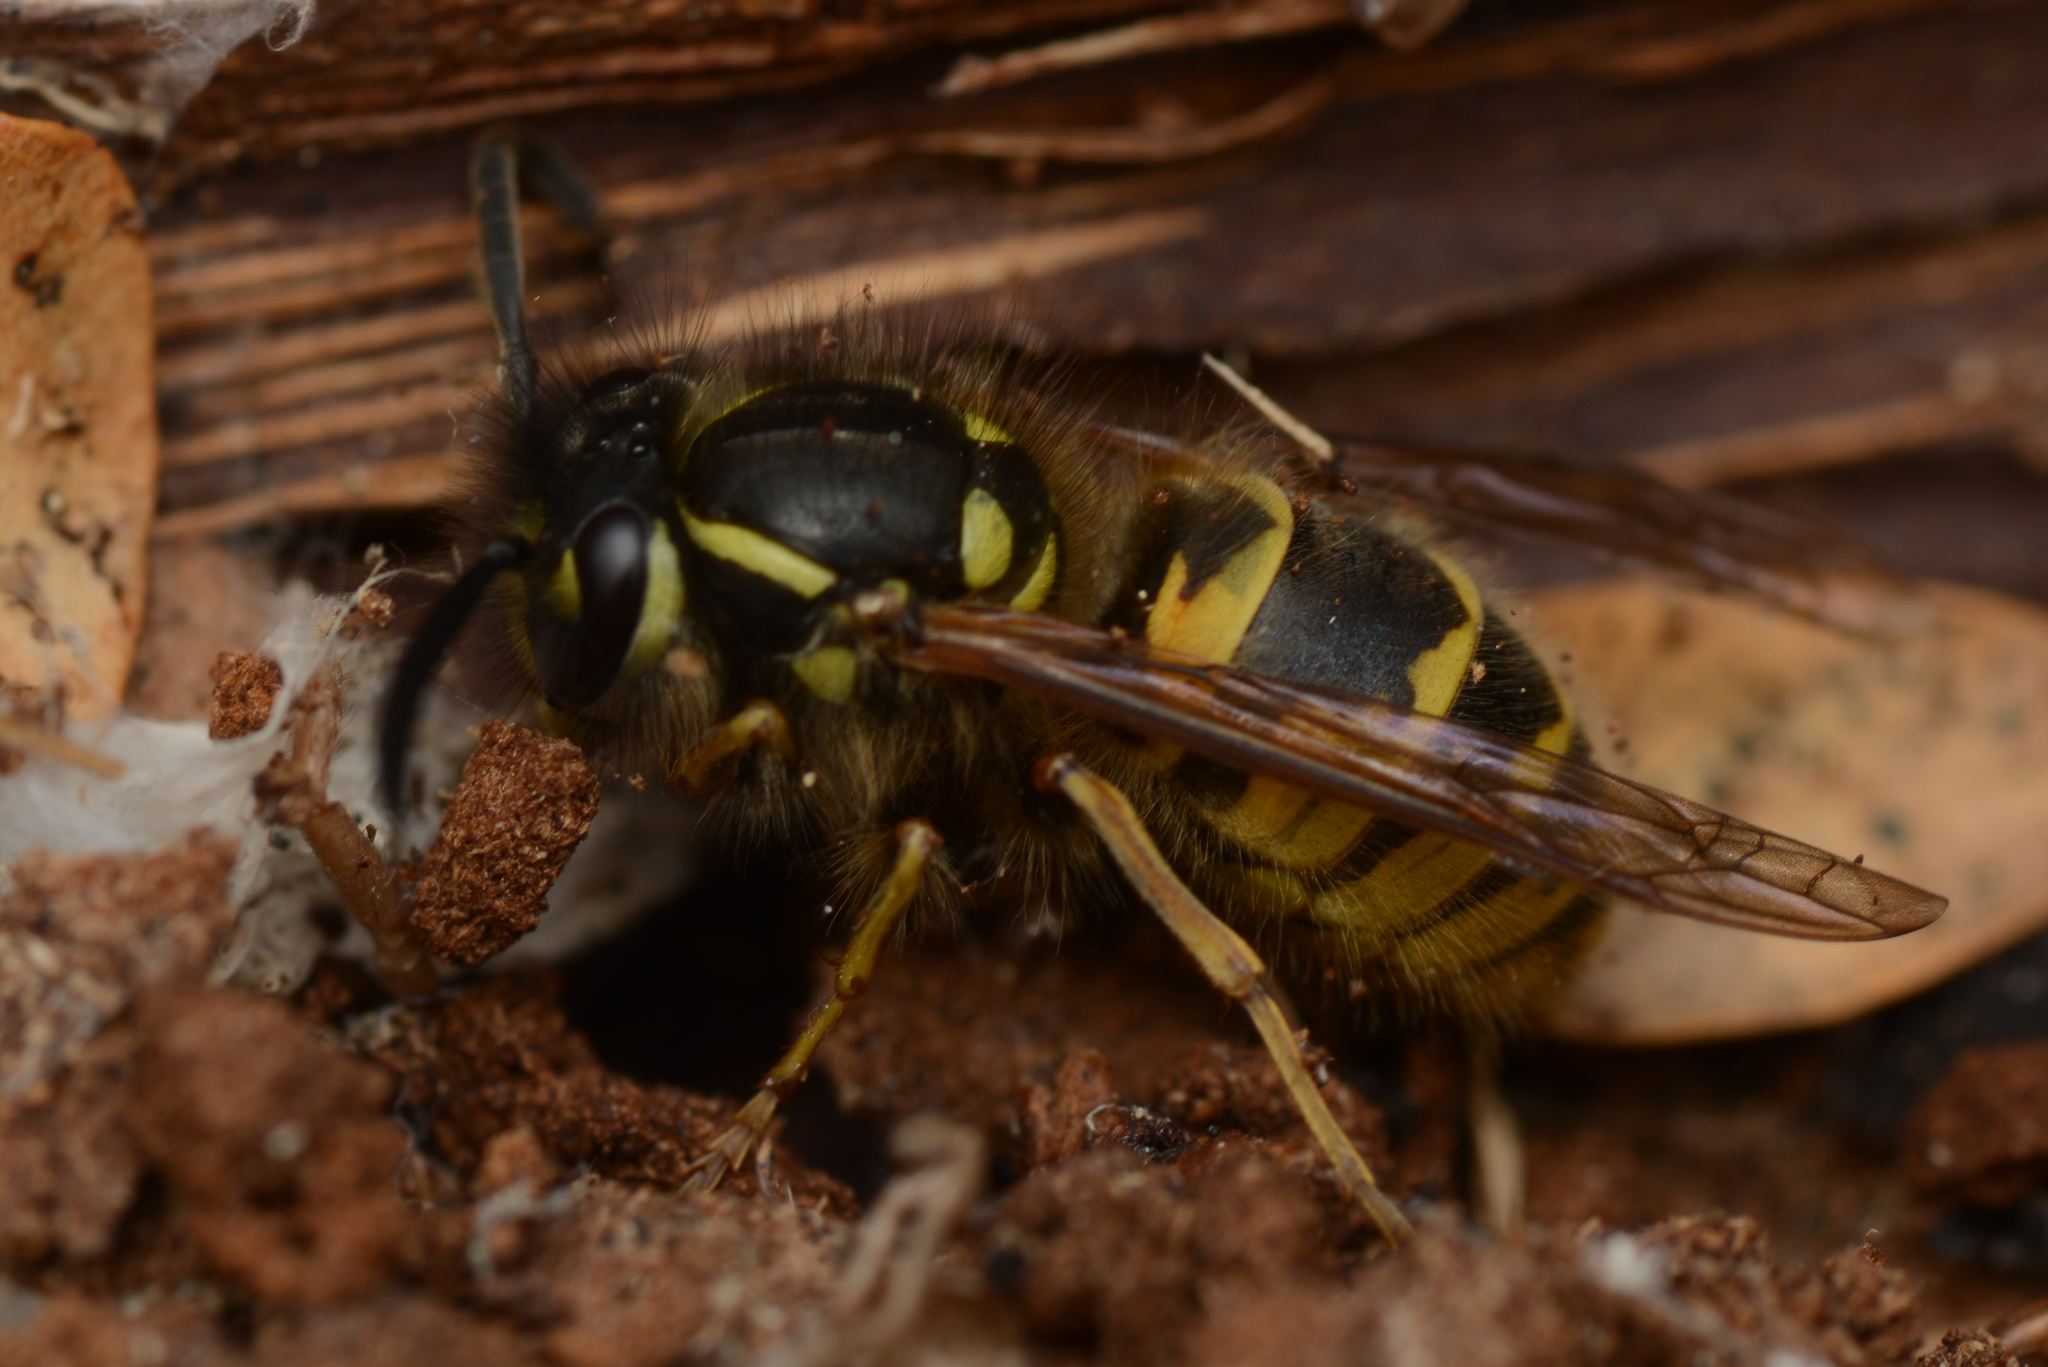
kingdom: Animalia
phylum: Arthropoda
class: Insecta
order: Hymenoptera
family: Vespidae
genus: Vespula
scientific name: Vespula vulgaris
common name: Common wasp
